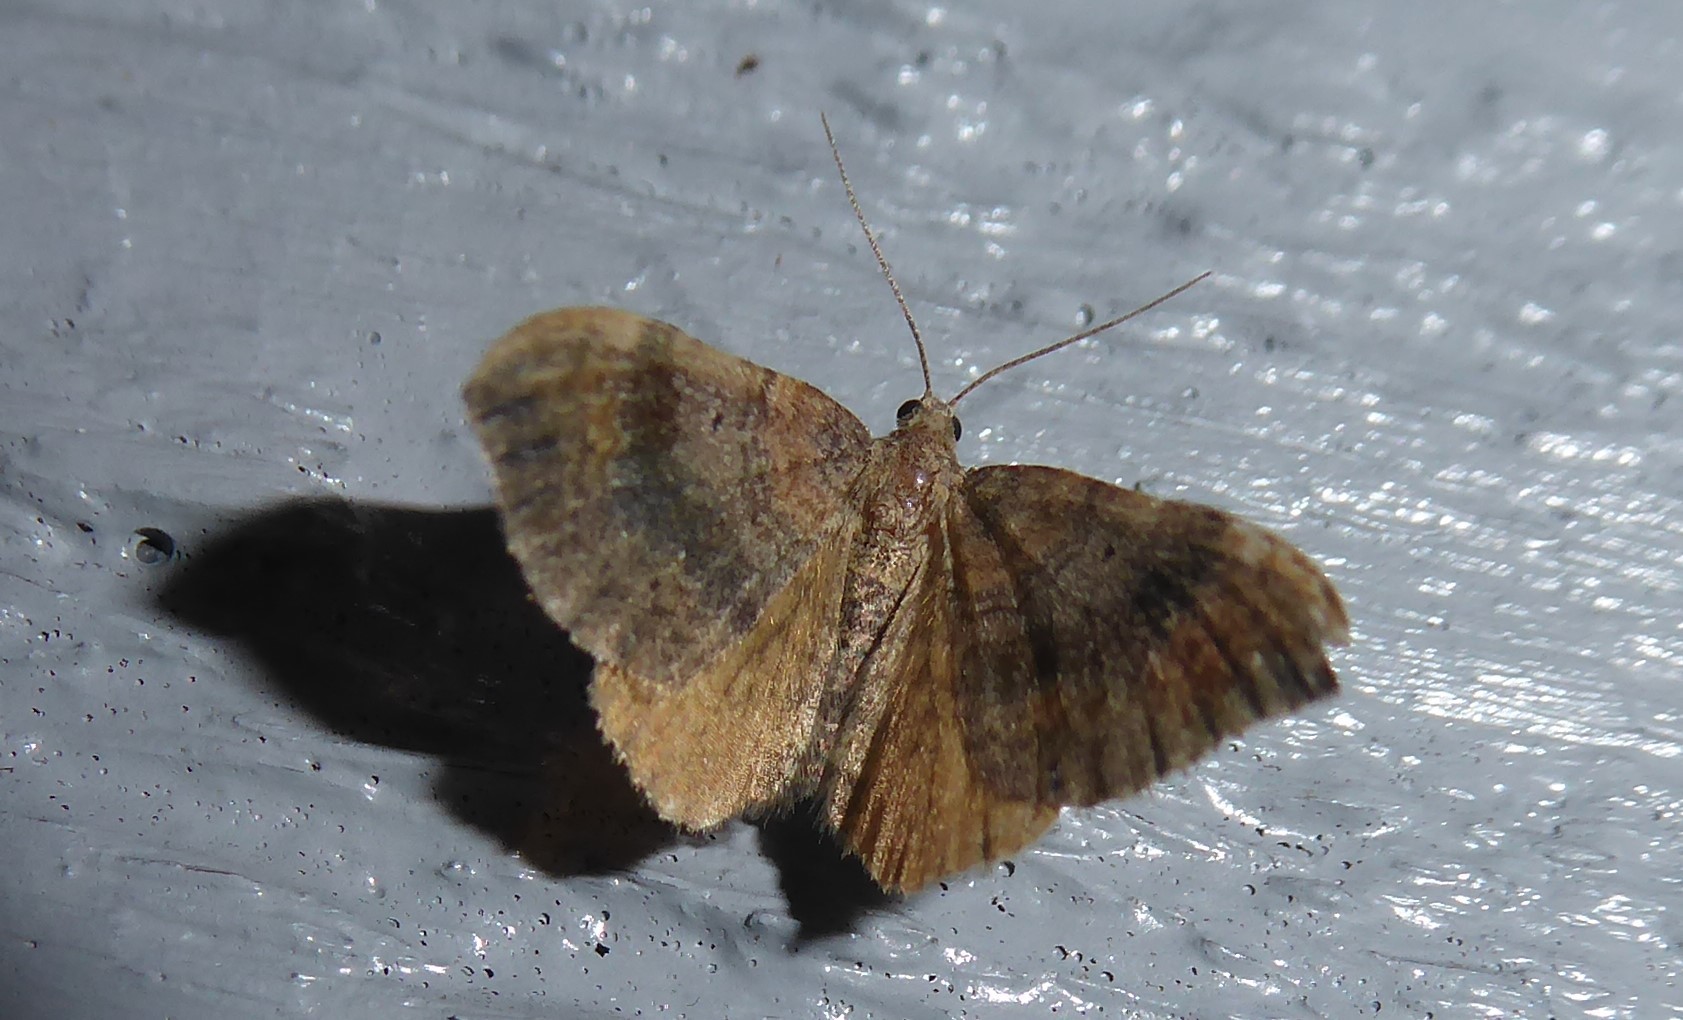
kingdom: Animalia
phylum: Arthropoda
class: Insecta
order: Lepidoptera
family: Geometridae
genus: Homodotis
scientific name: Homodotis megaspilata
